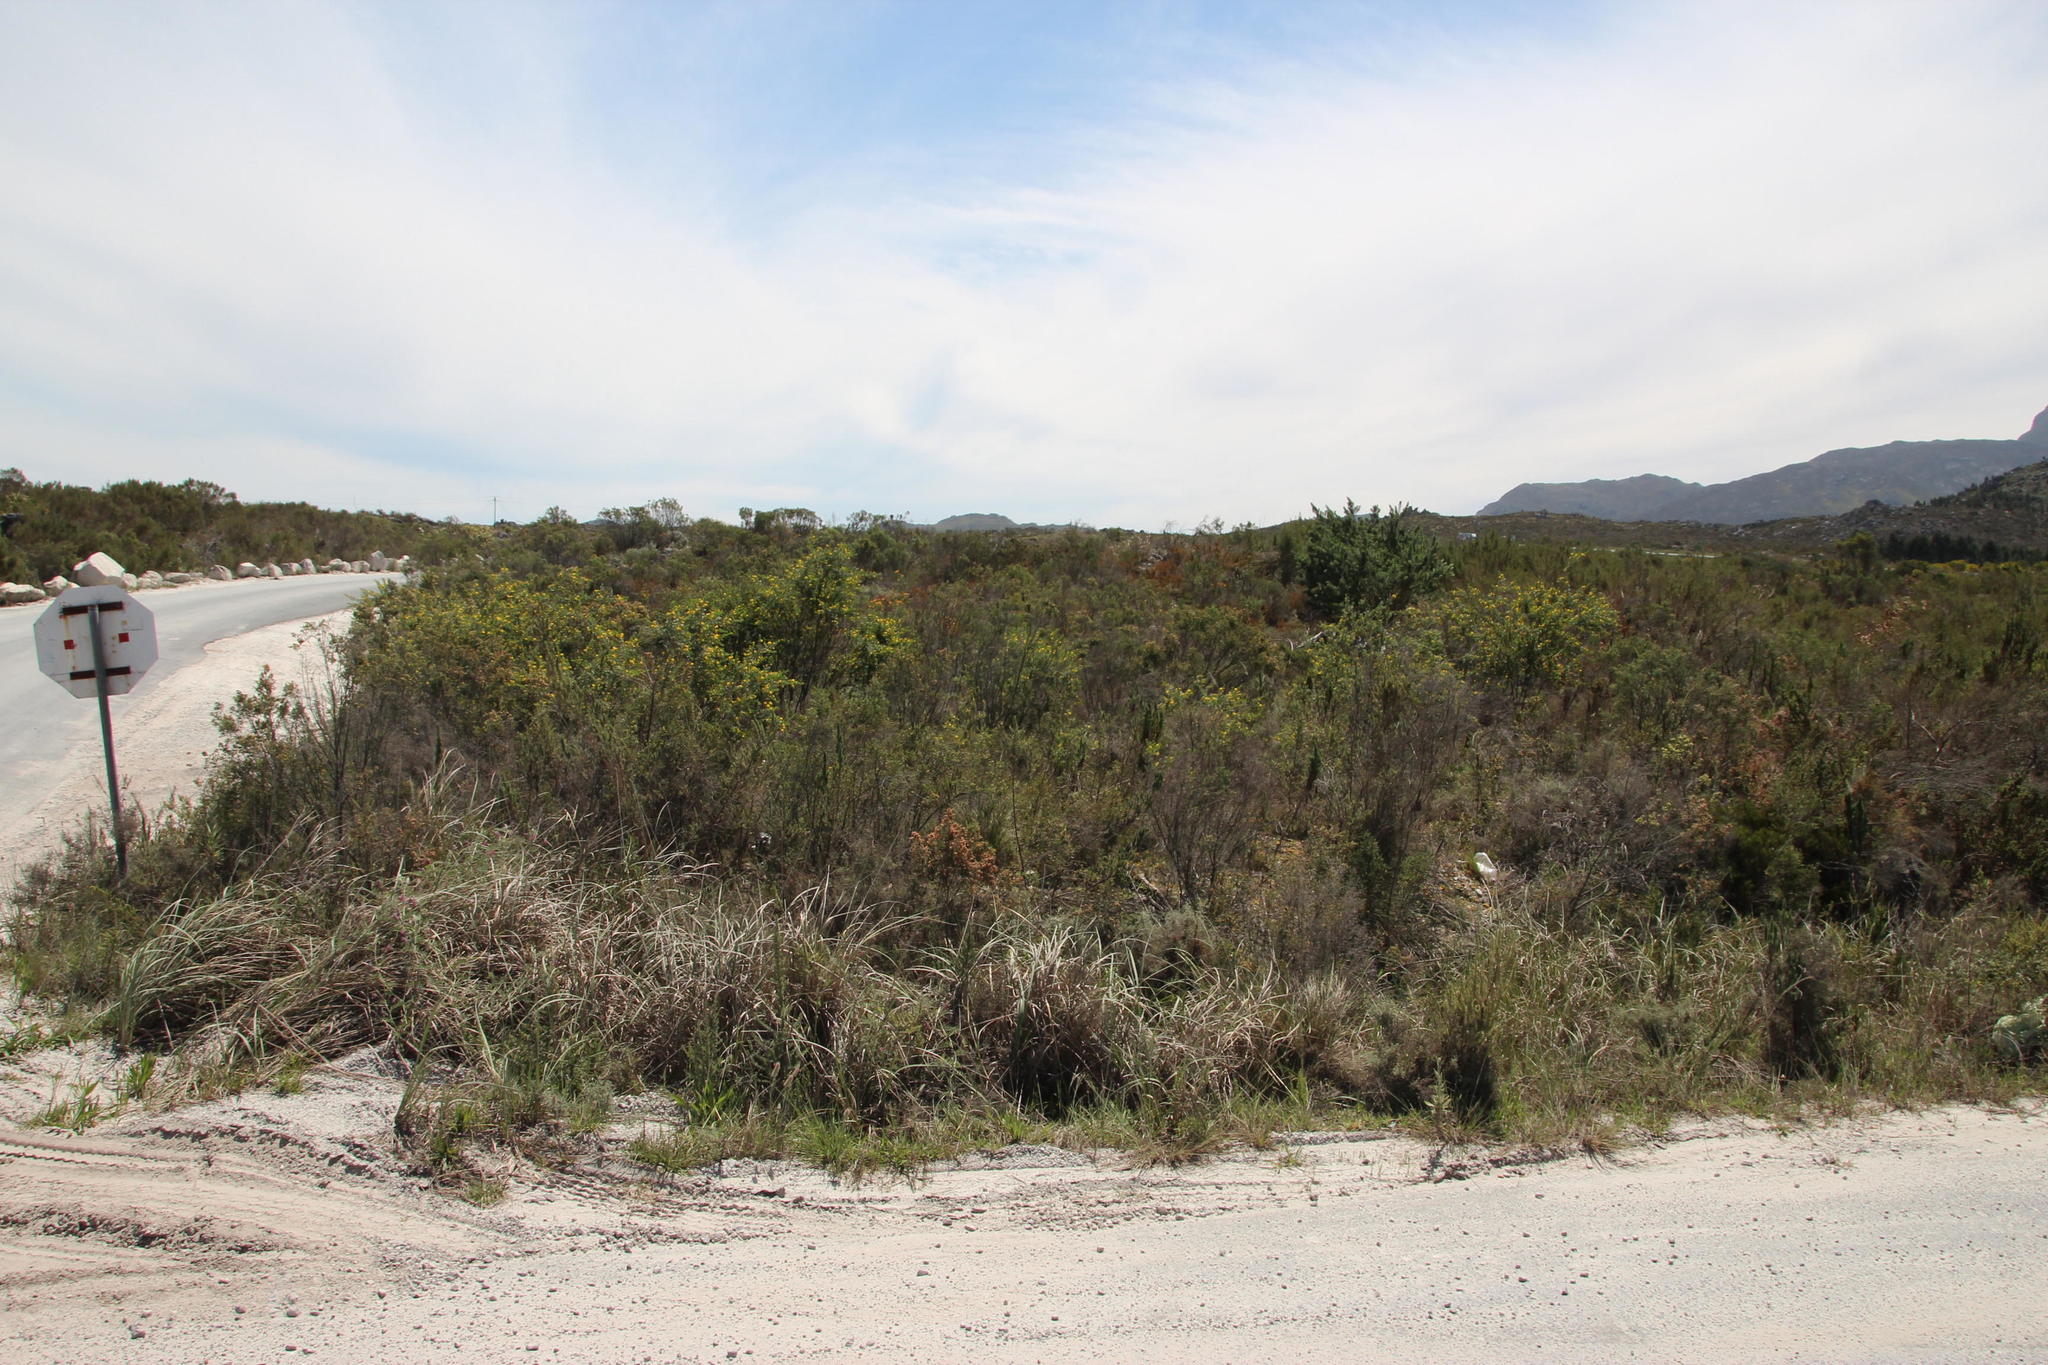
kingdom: Plantae
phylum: Tracheophyta
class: Magnoliopsida
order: Fabales
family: Fabaceae
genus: Genista
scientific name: Genista monspessulana
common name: Montpellier broom
